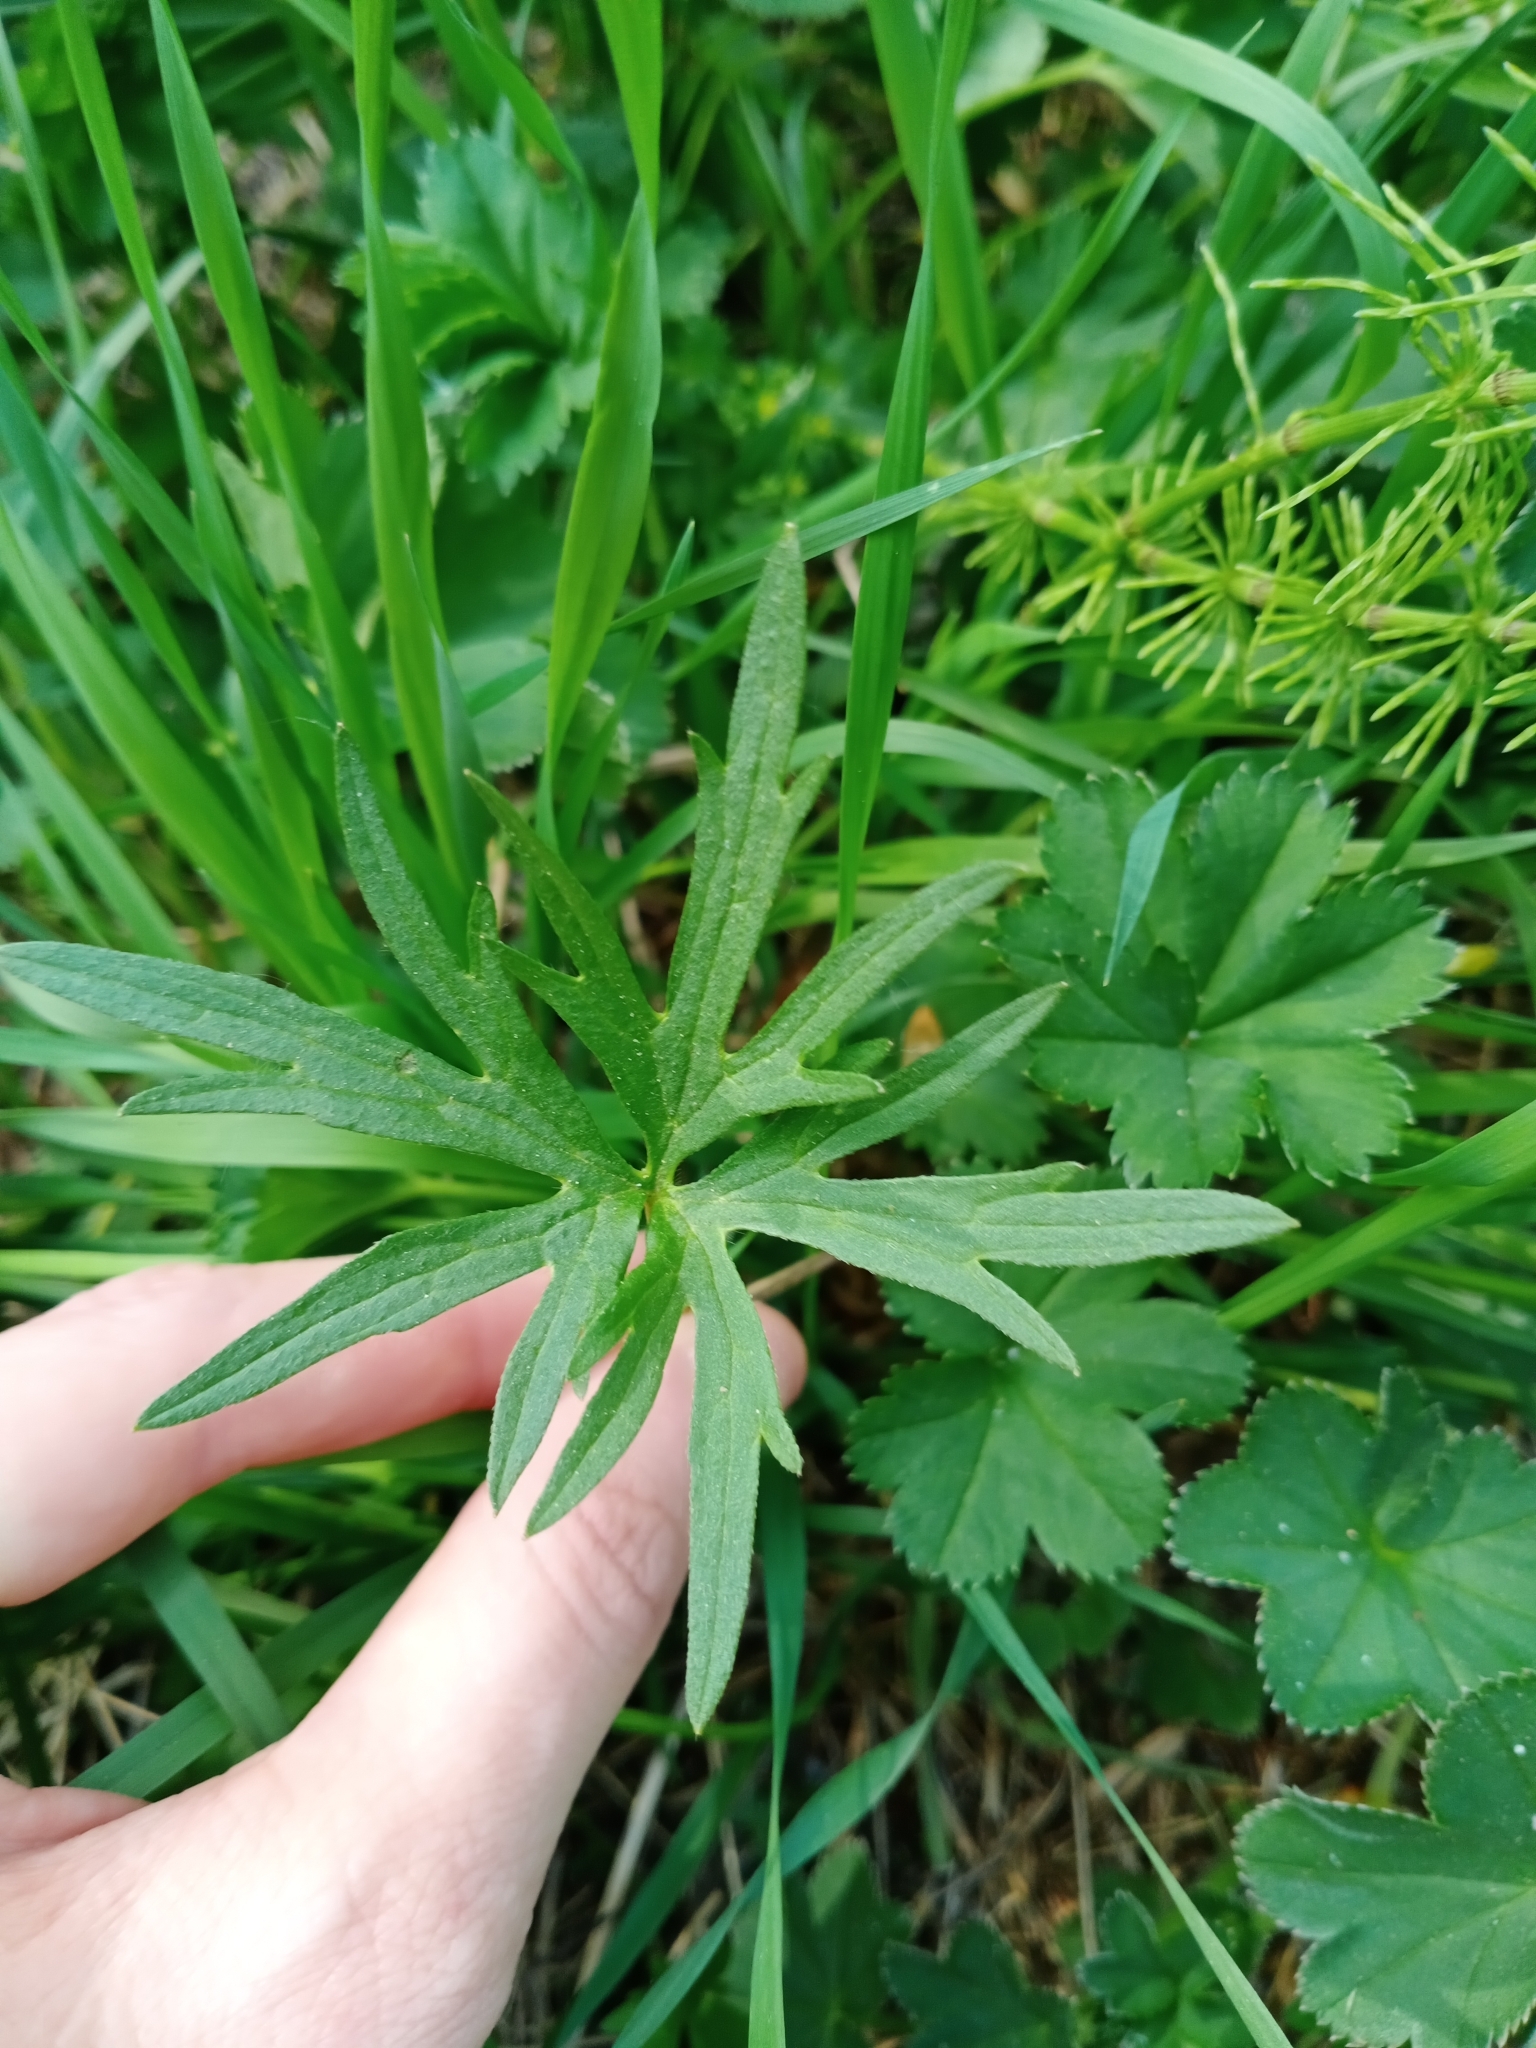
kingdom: Plantae
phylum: Tracheophyta
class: Magnoliopsida
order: Ranunculales
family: Ranunculaceae
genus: Ranunculus
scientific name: Ranunculus acris
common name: Meadow buttercup
